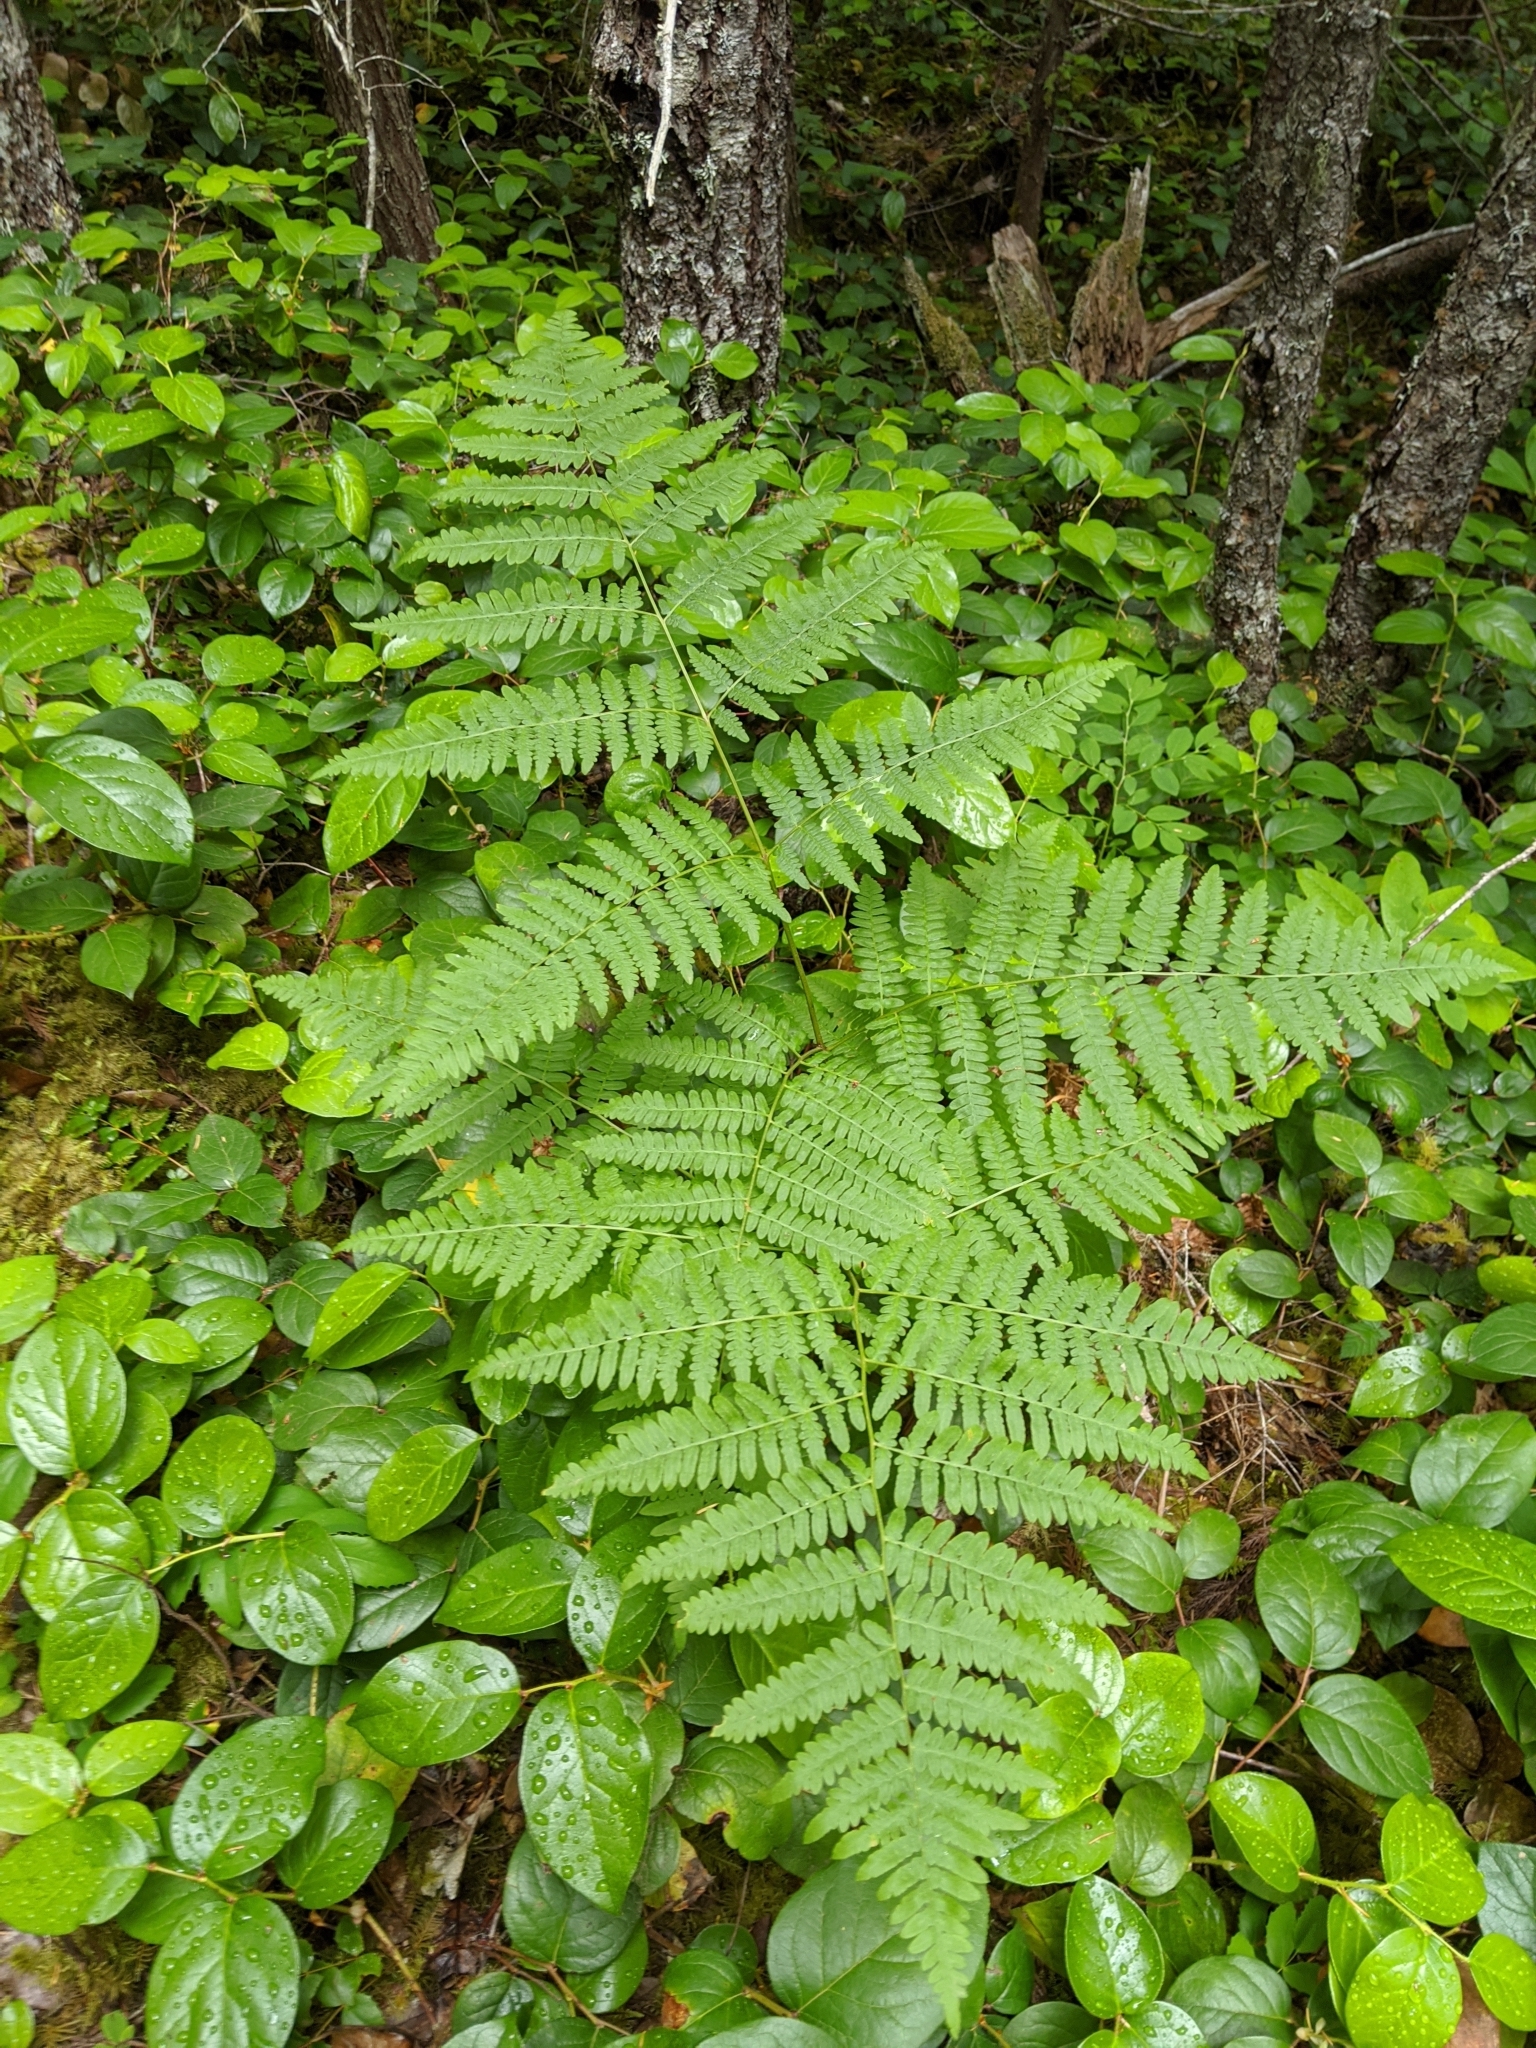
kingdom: Plantae
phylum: Tracheophyta
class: Polypodiopsida
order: Polypodiales
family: Dennstaedtiaceae
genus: Pteridium
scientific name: Pteridium aquilinum
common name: Bracken
